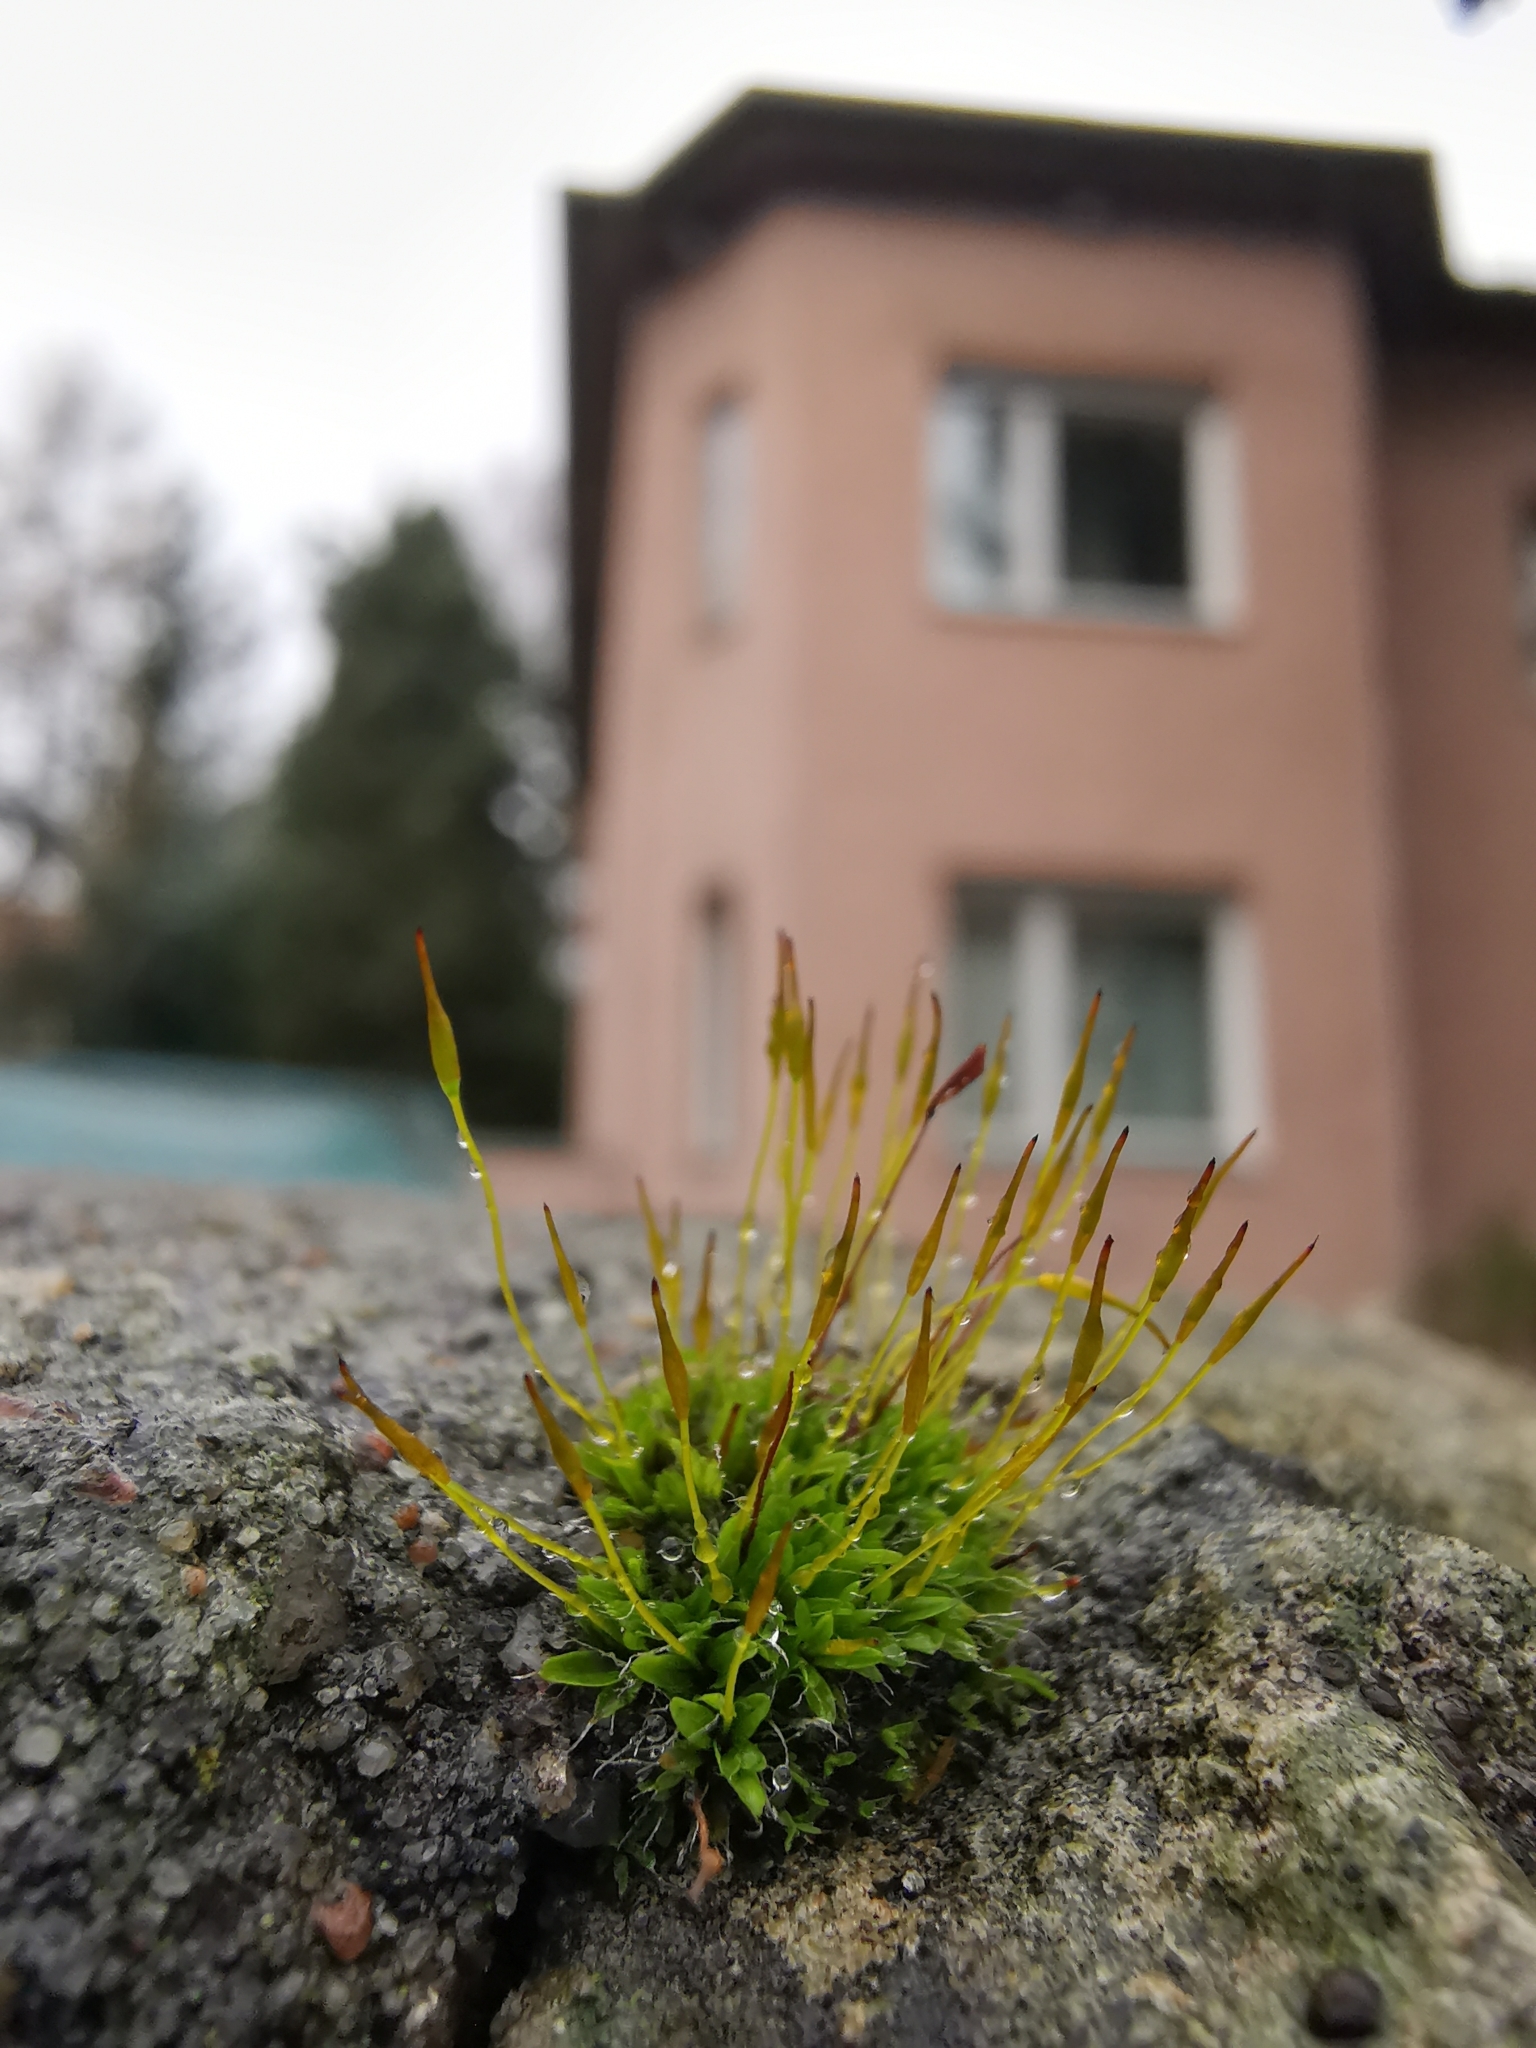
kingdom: Plantae
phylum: Bryophyta
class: Bryopsida
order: Pottiales
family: Pottiaceae
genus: Tortula
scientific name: Tortula muralis
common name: Wall screw-moss
